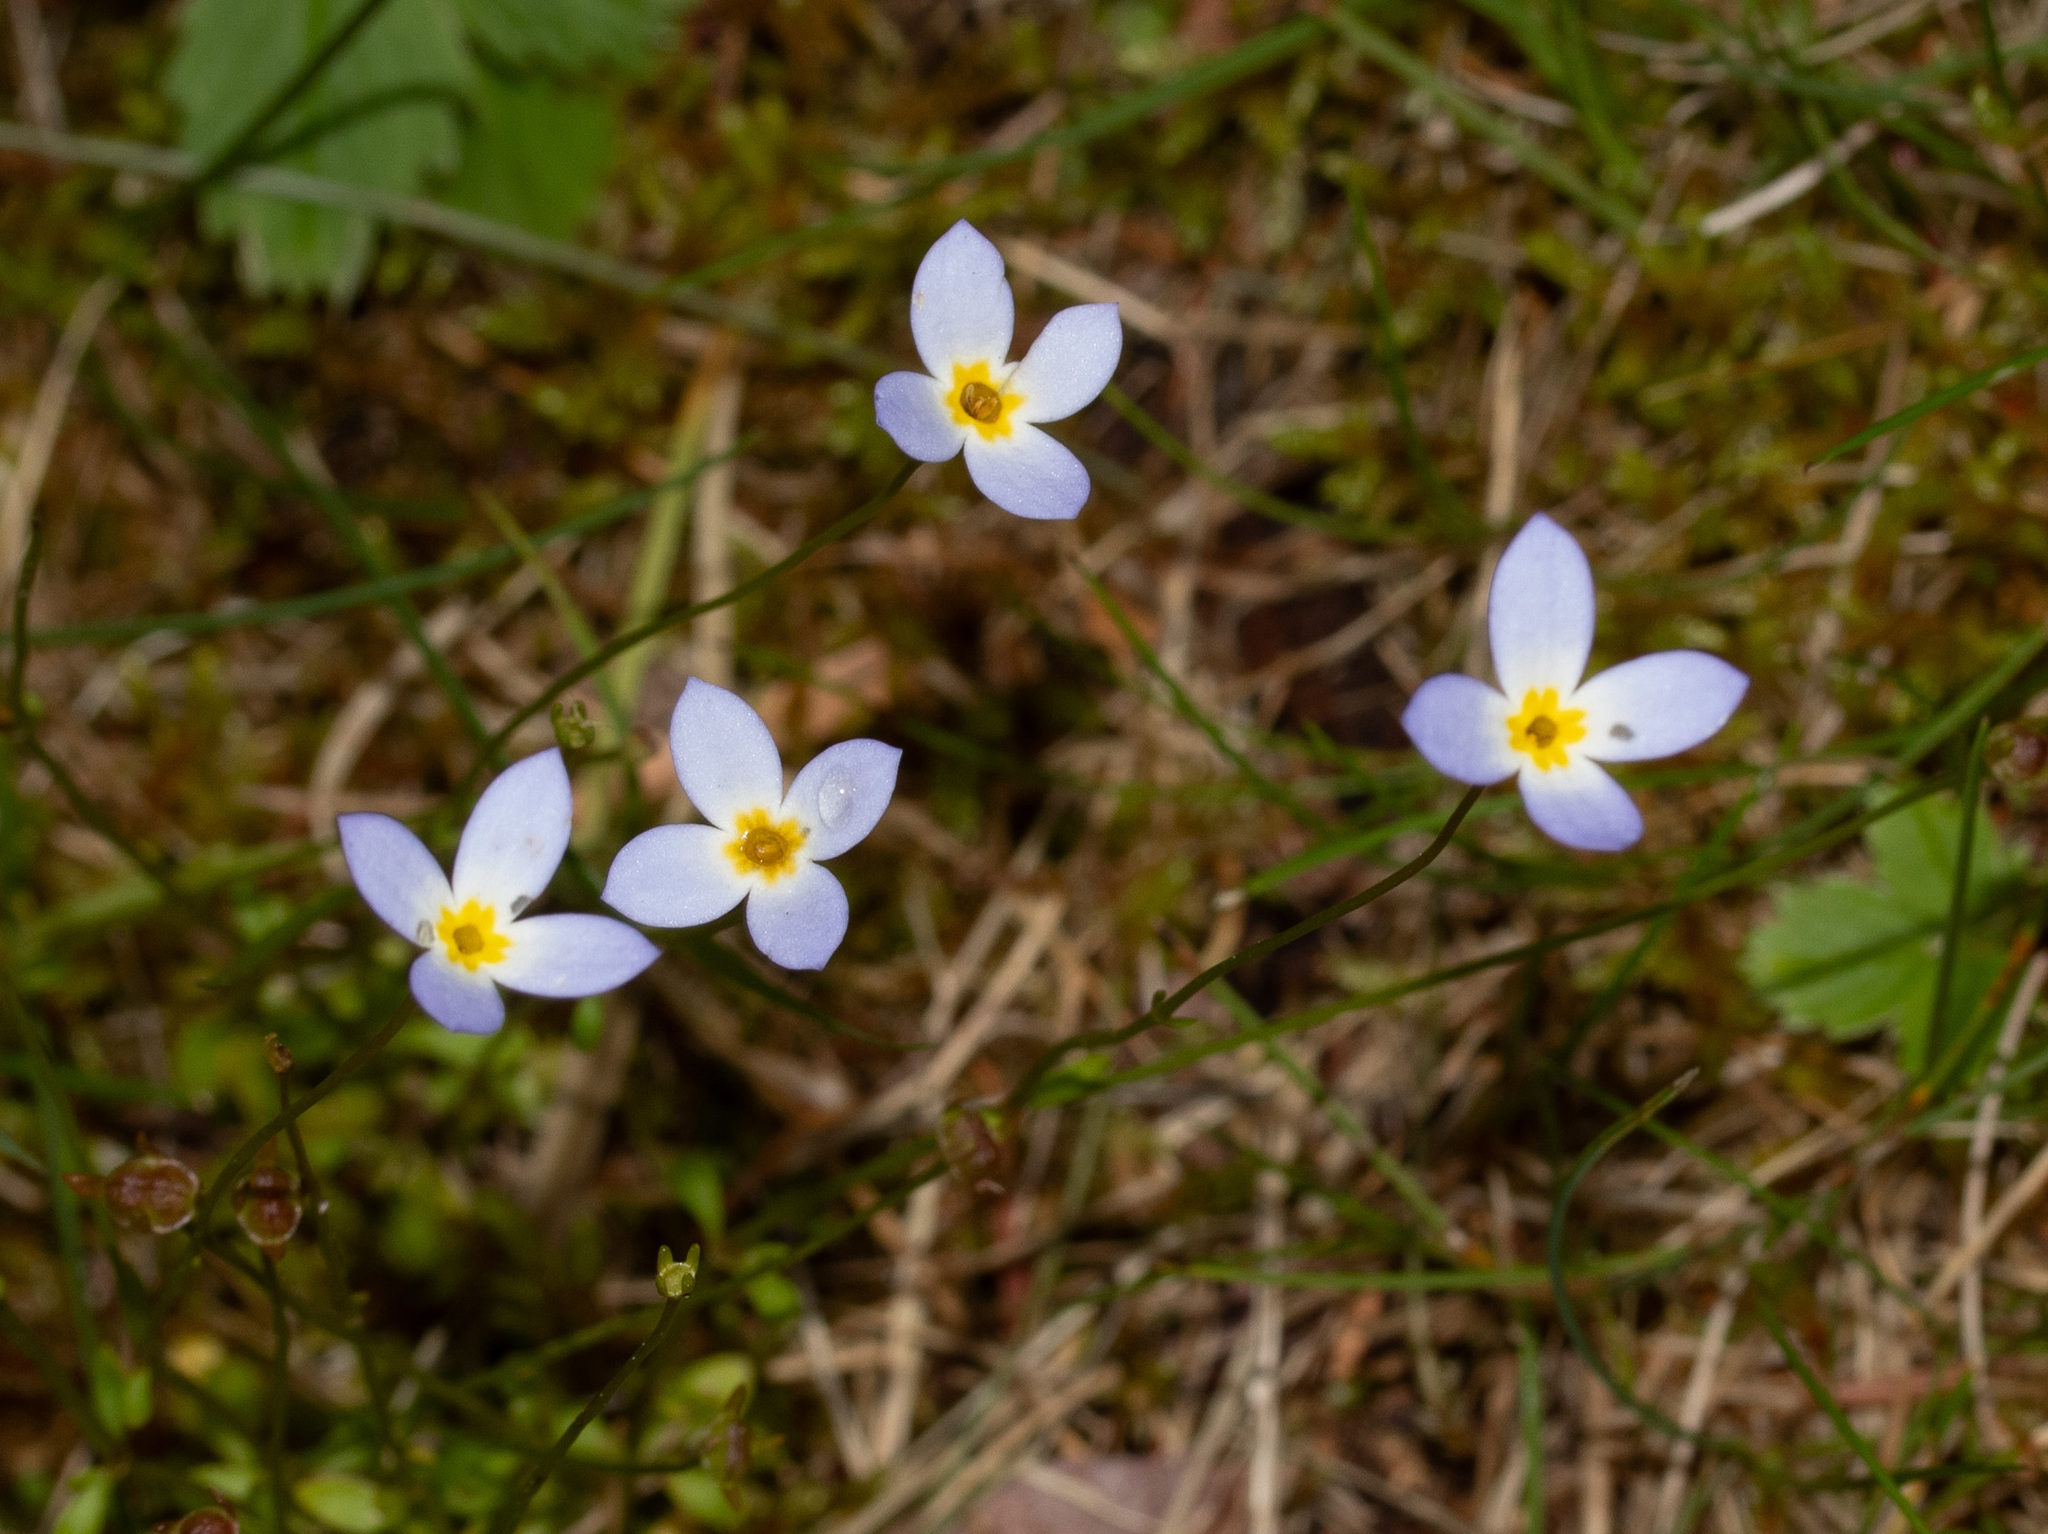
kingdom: Plantae
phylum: Tracheophyta
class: Magnoliopsida
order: Gentianales
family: Rubiaceae
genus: Houstonia
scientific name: Houstonia caerulea
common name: Bluets
